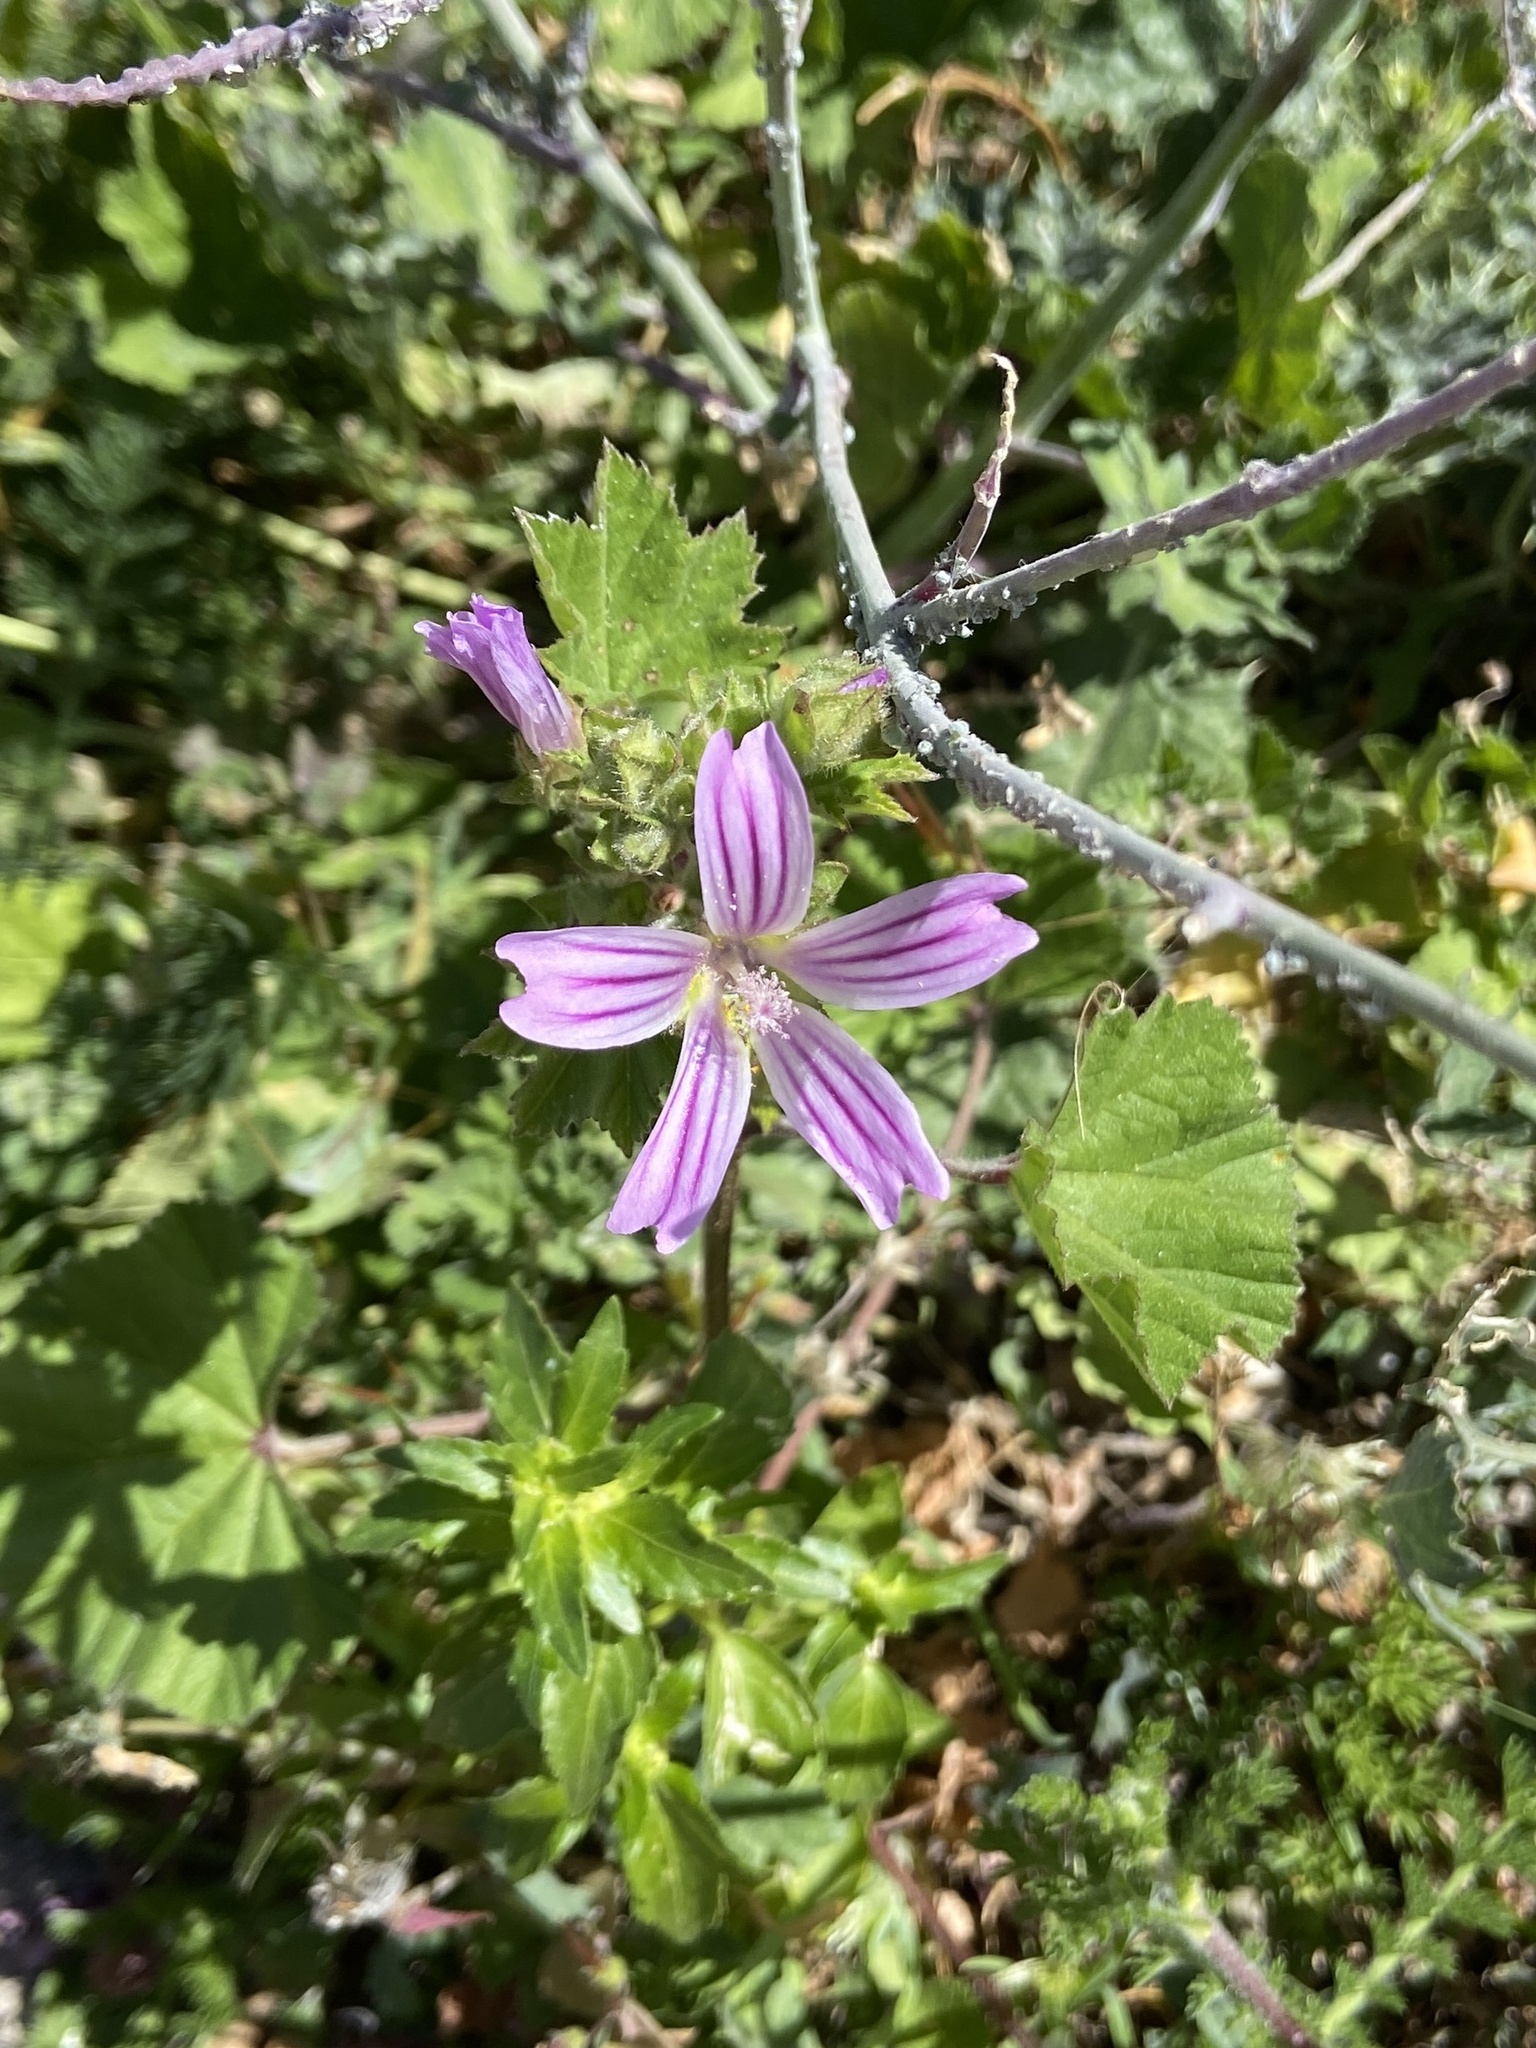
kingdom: Plantae
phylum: Tracheophyta
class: Magnoliopsida
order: Malvales
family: Malvaceae
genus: Malva
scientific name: Malva multiflora
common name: Cheeseweed
